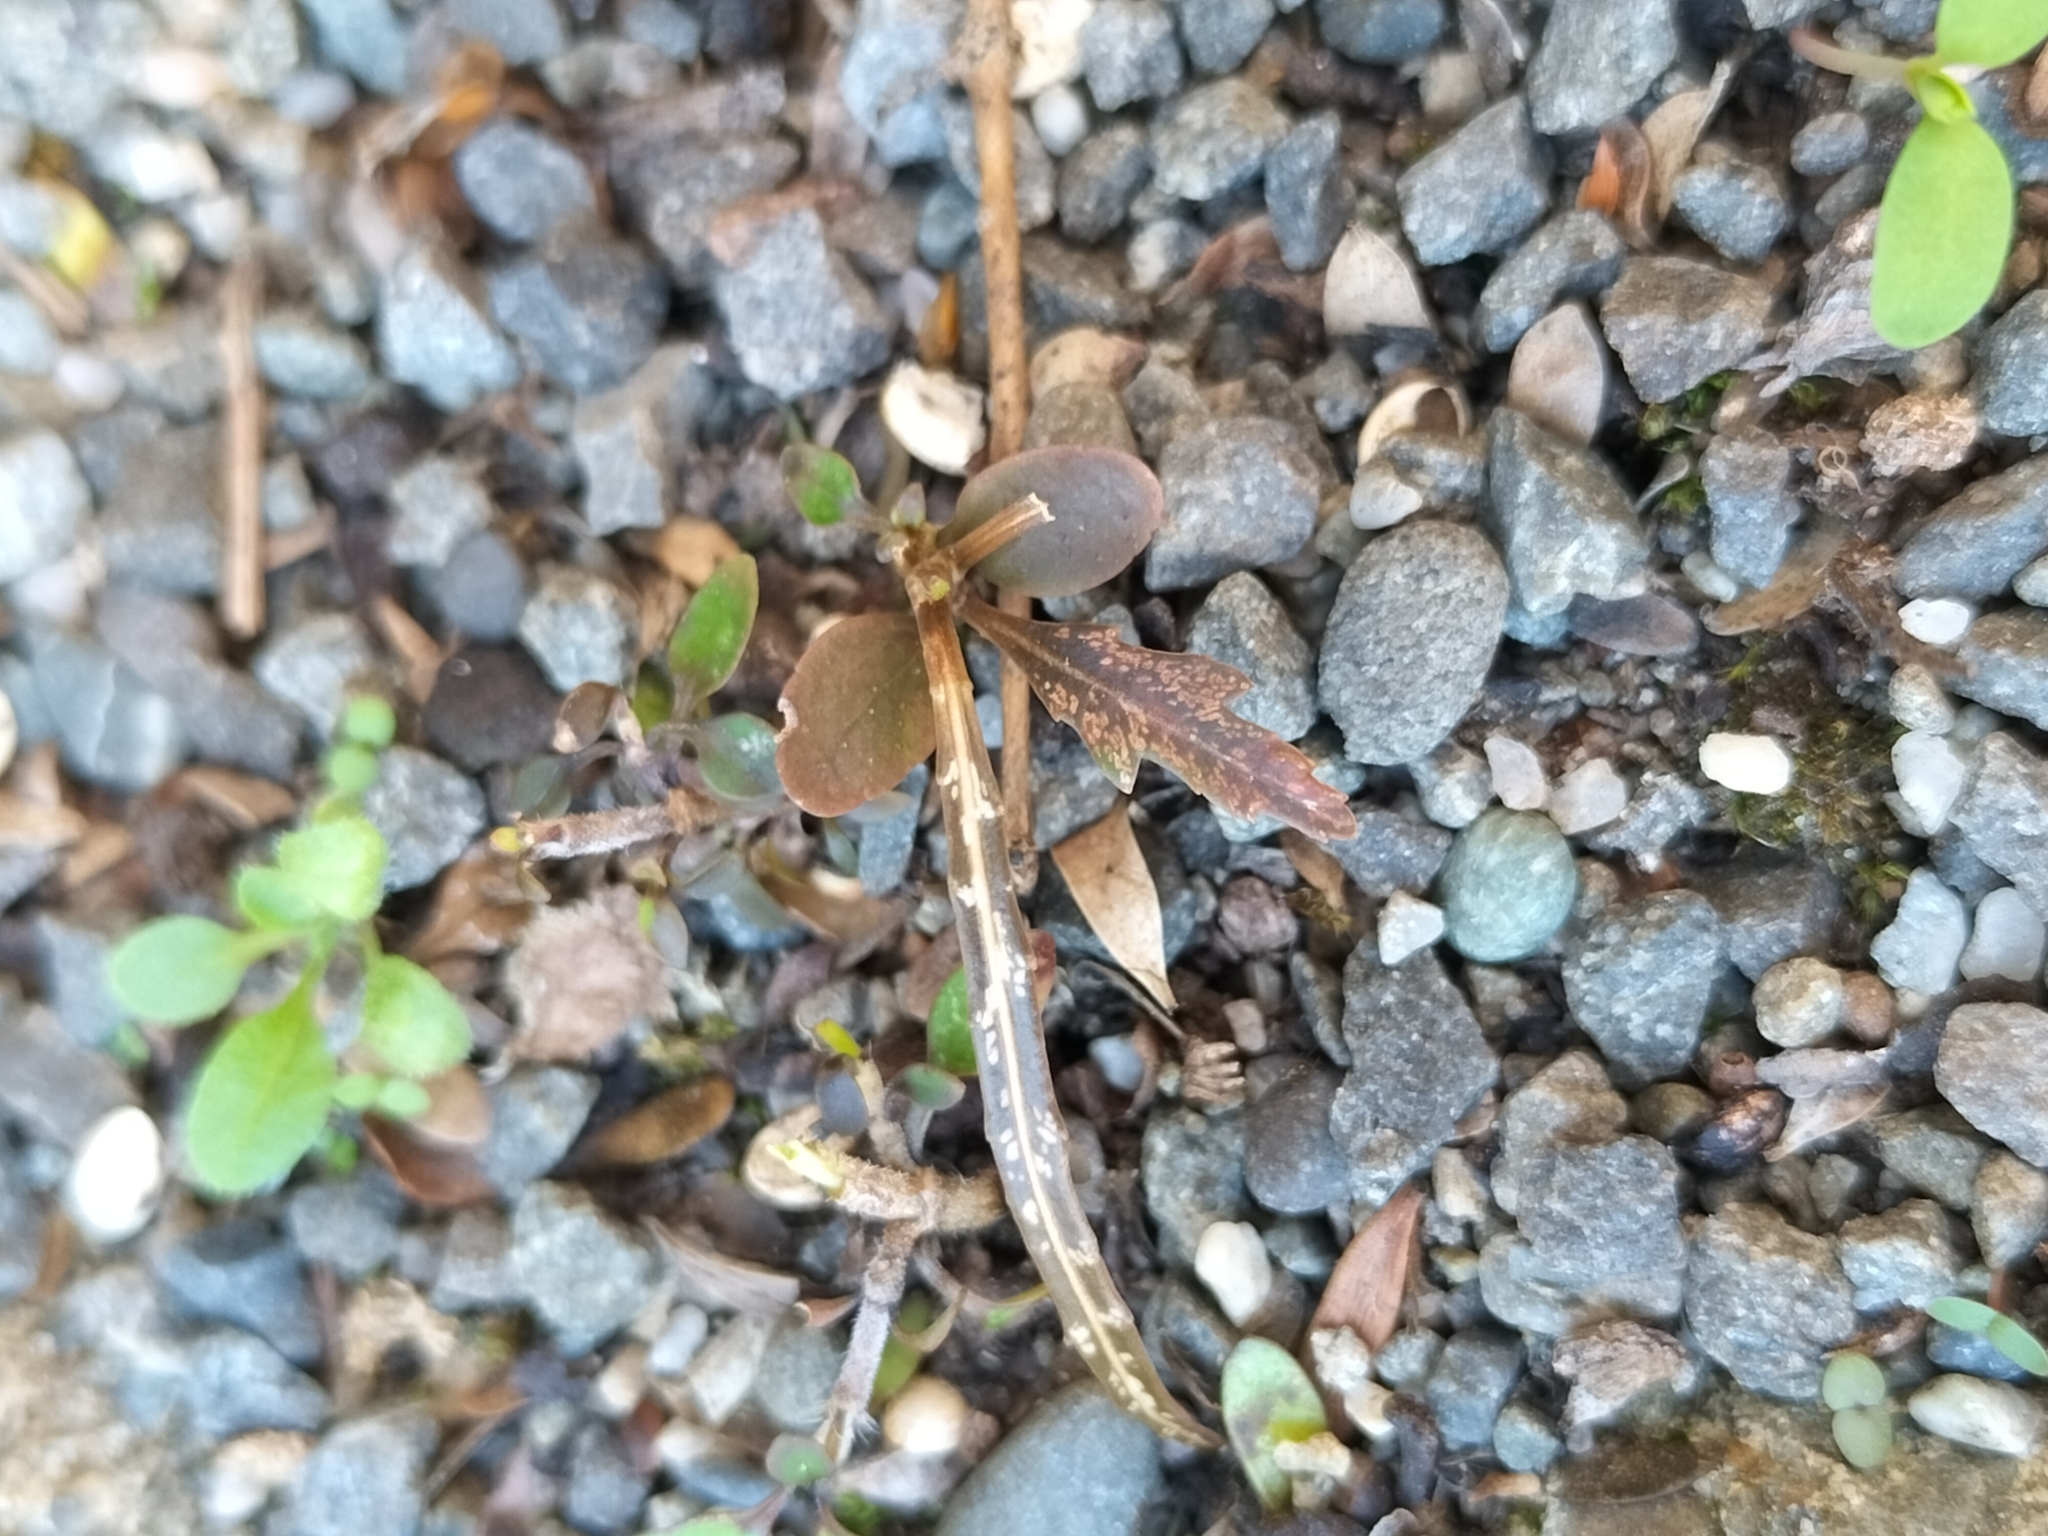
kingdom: Plantae
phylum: Tracheophyta
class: Magnoliopsida
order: Apiales
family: Araliaceae
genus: Pseudopanax
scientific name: Pseudopanax crassifolius
